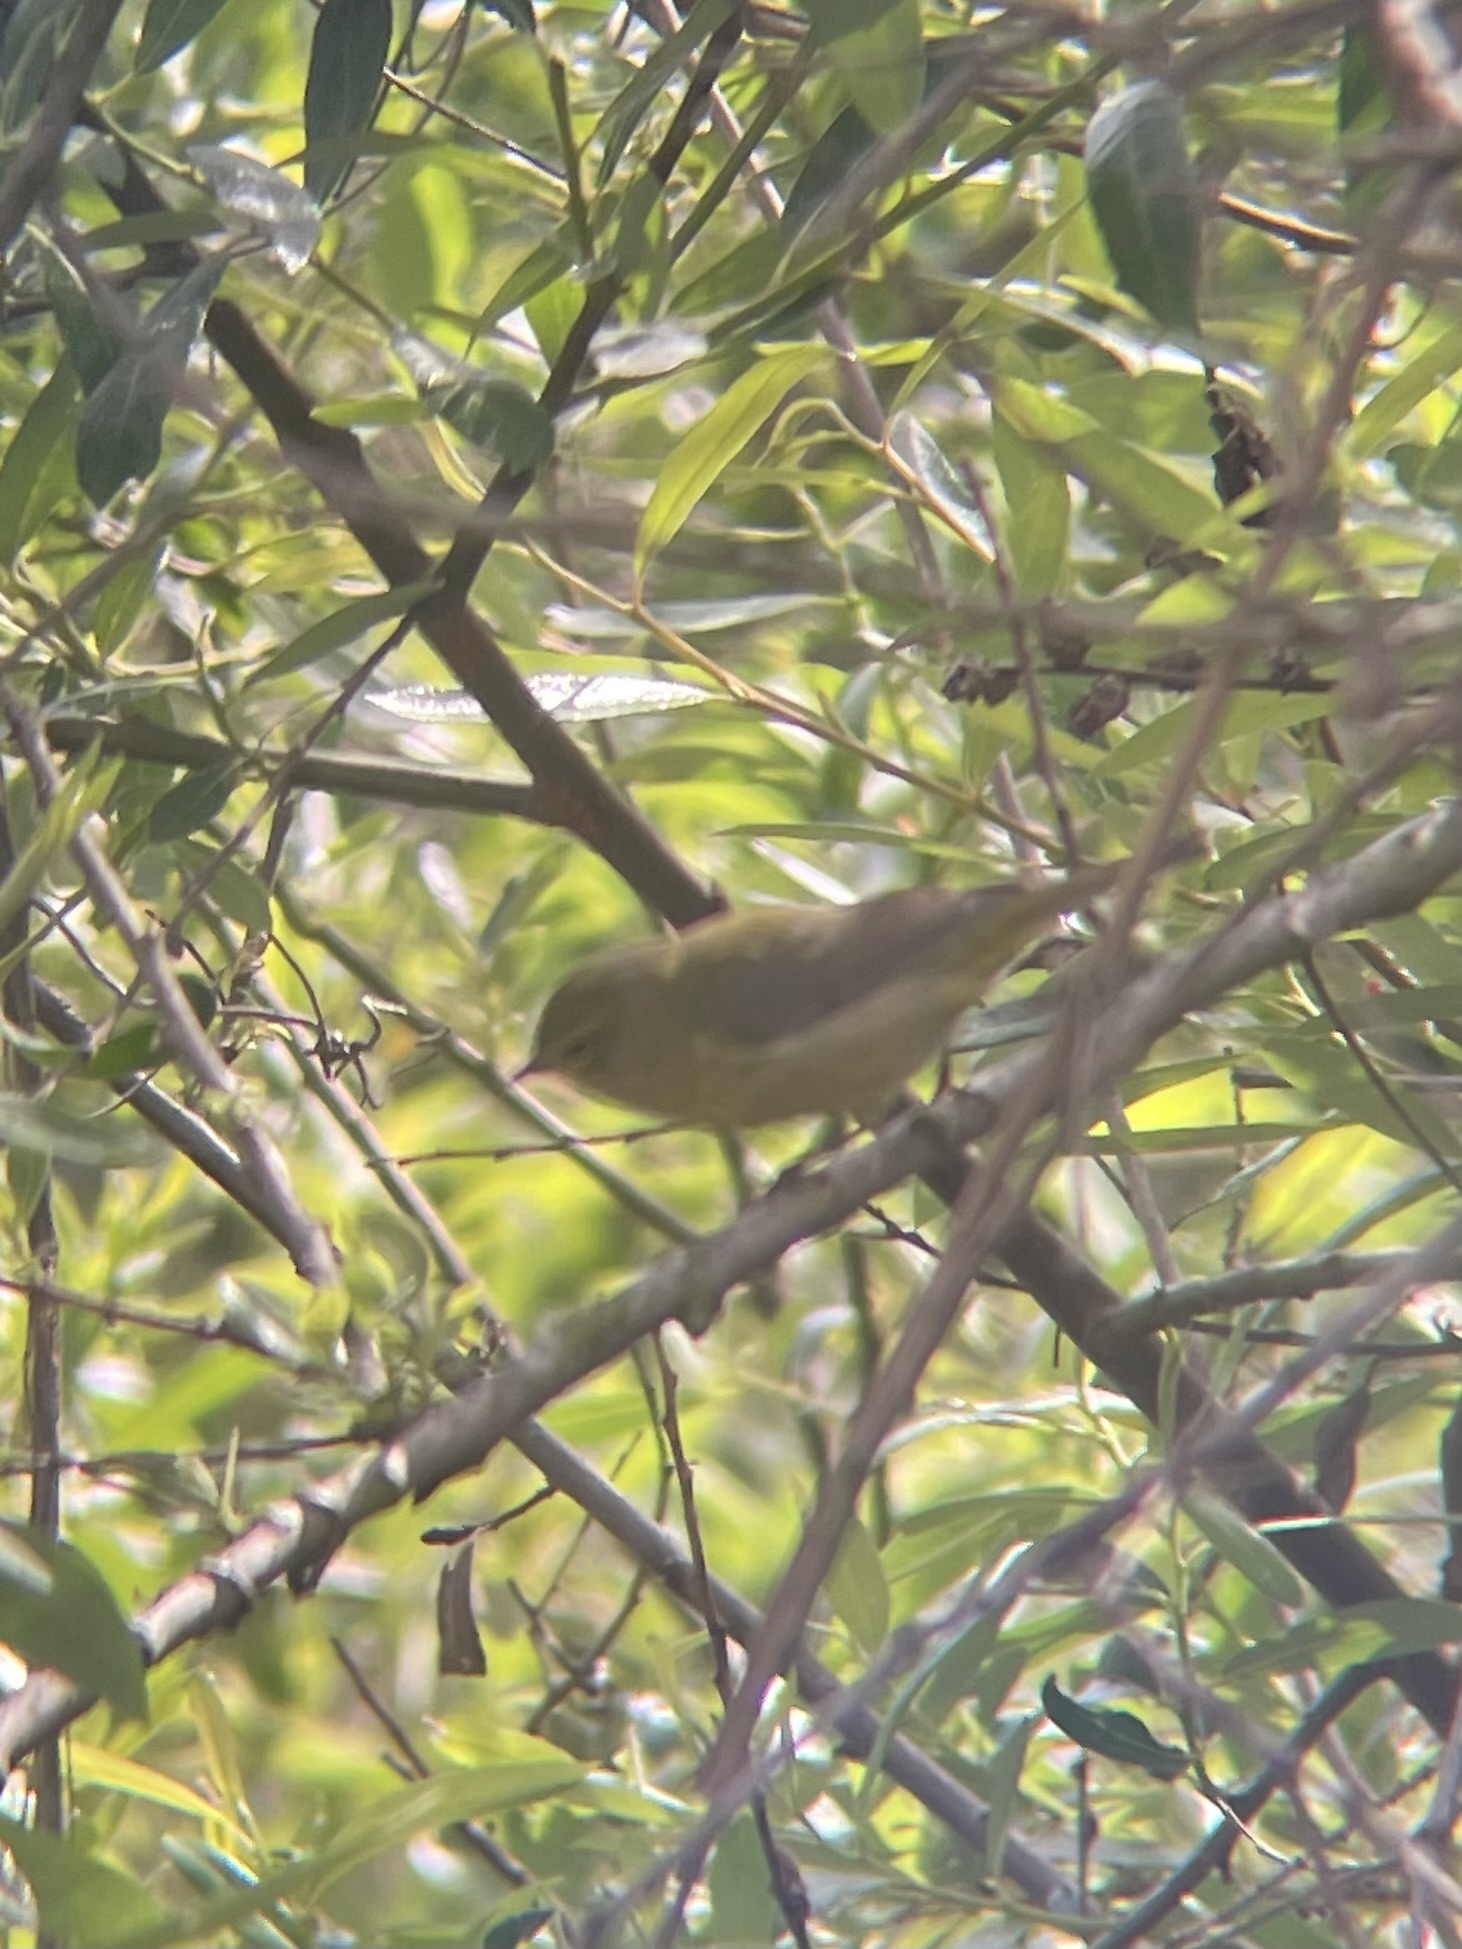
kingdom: Animalia
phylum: Chordata
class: Aves
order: Passeriformes
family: Parulidae
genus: Leiothlypis
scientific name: Leiothlypis celata
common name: Orange-crowned warbler
